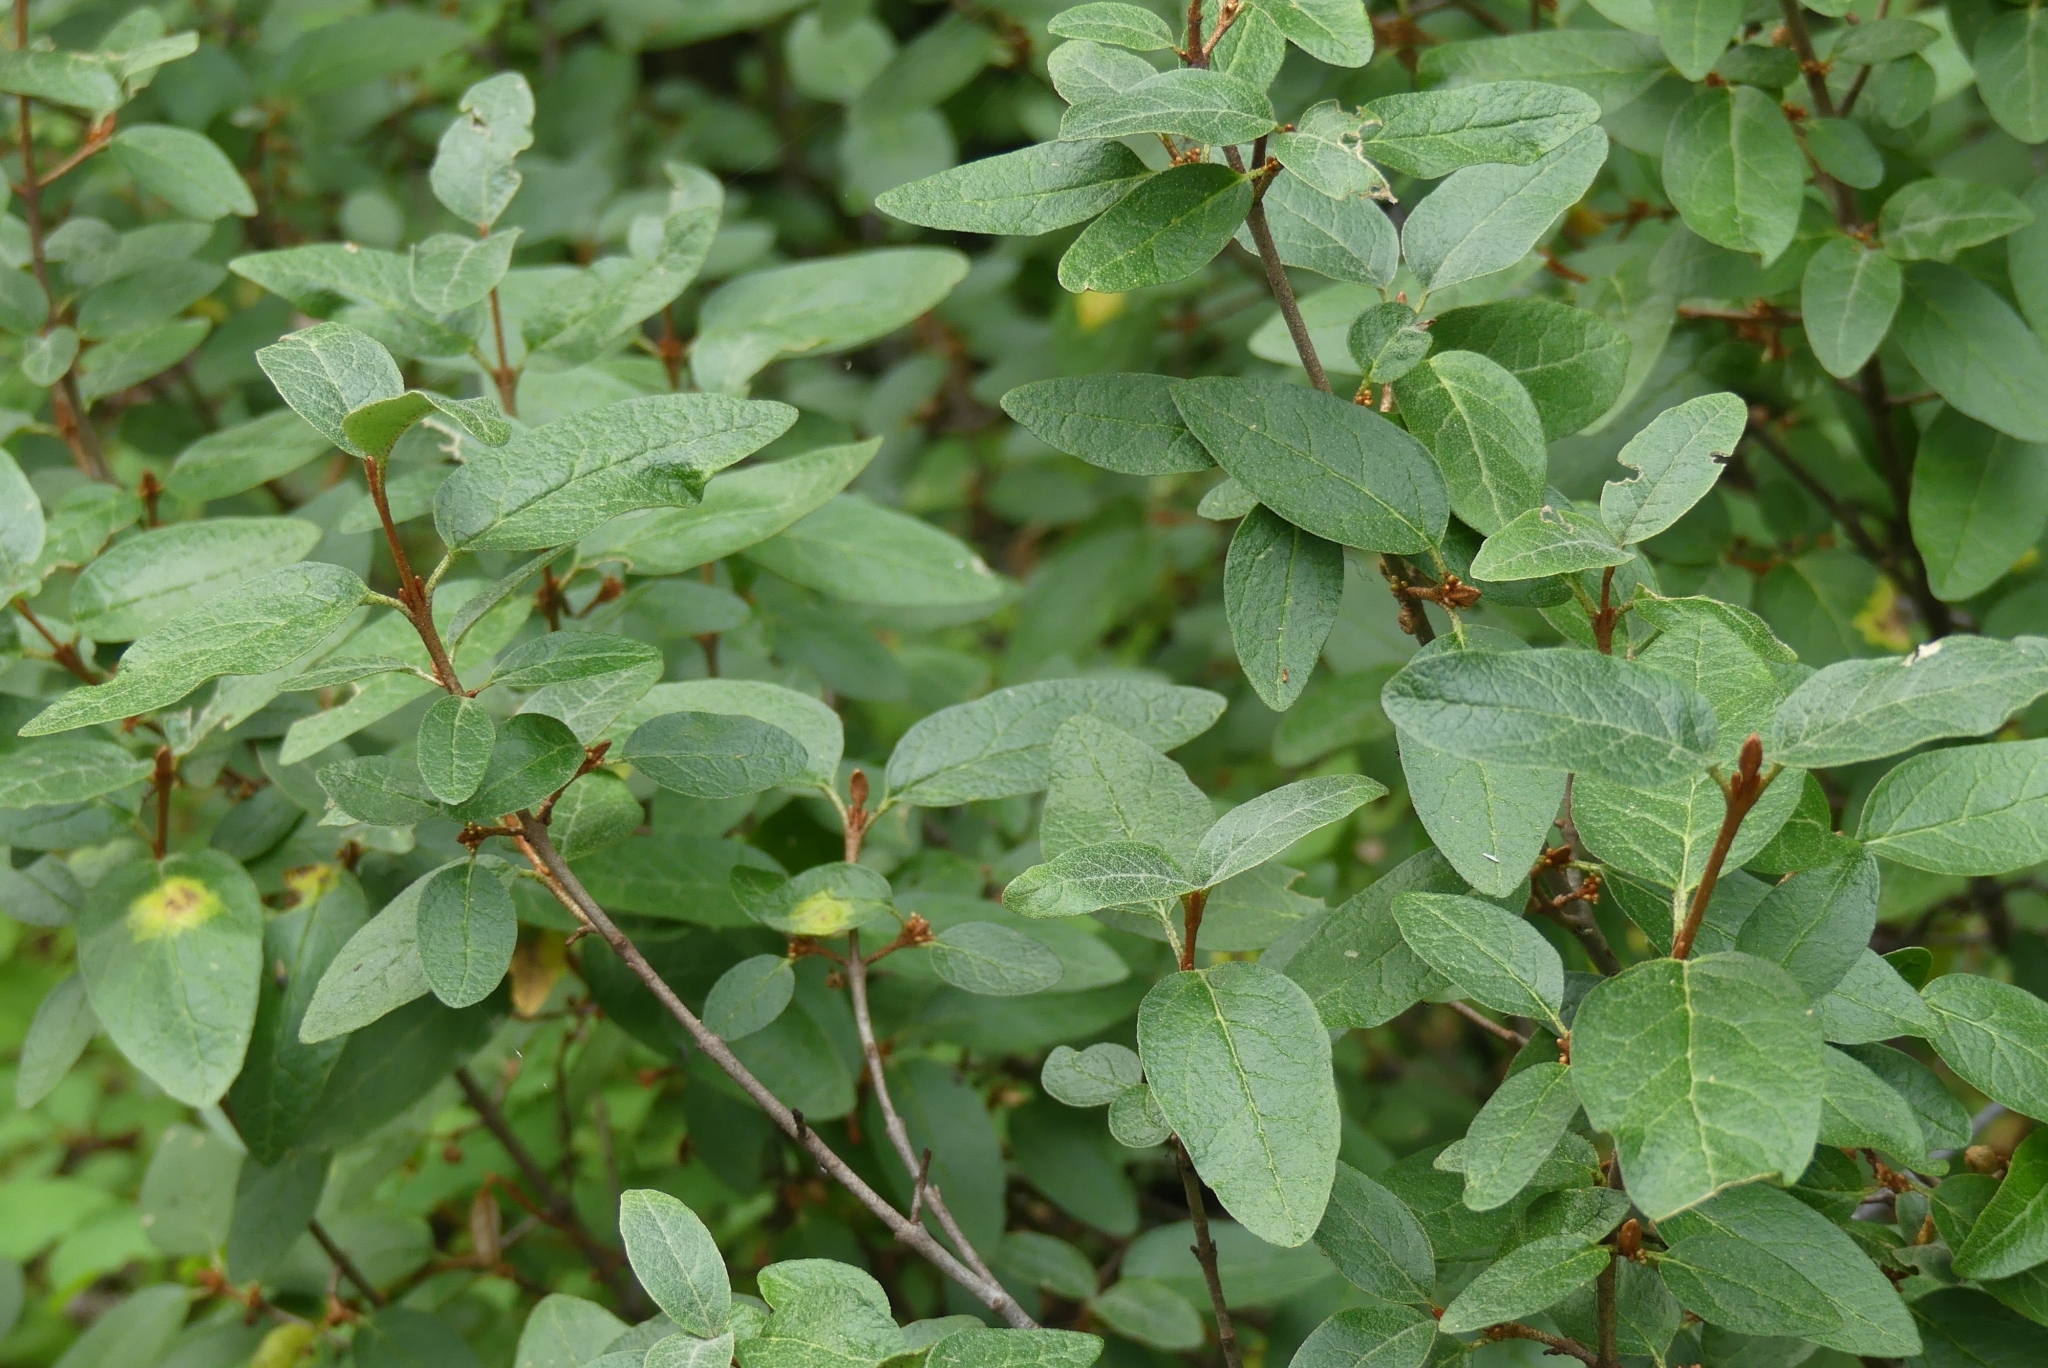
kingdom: Plantae
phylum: Tracheophyta
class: Magnoliopsida
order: Rosales
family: Elaeagnaceae
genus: Shepherdia
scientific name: Shepherdia canadensis
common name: Soapberry
